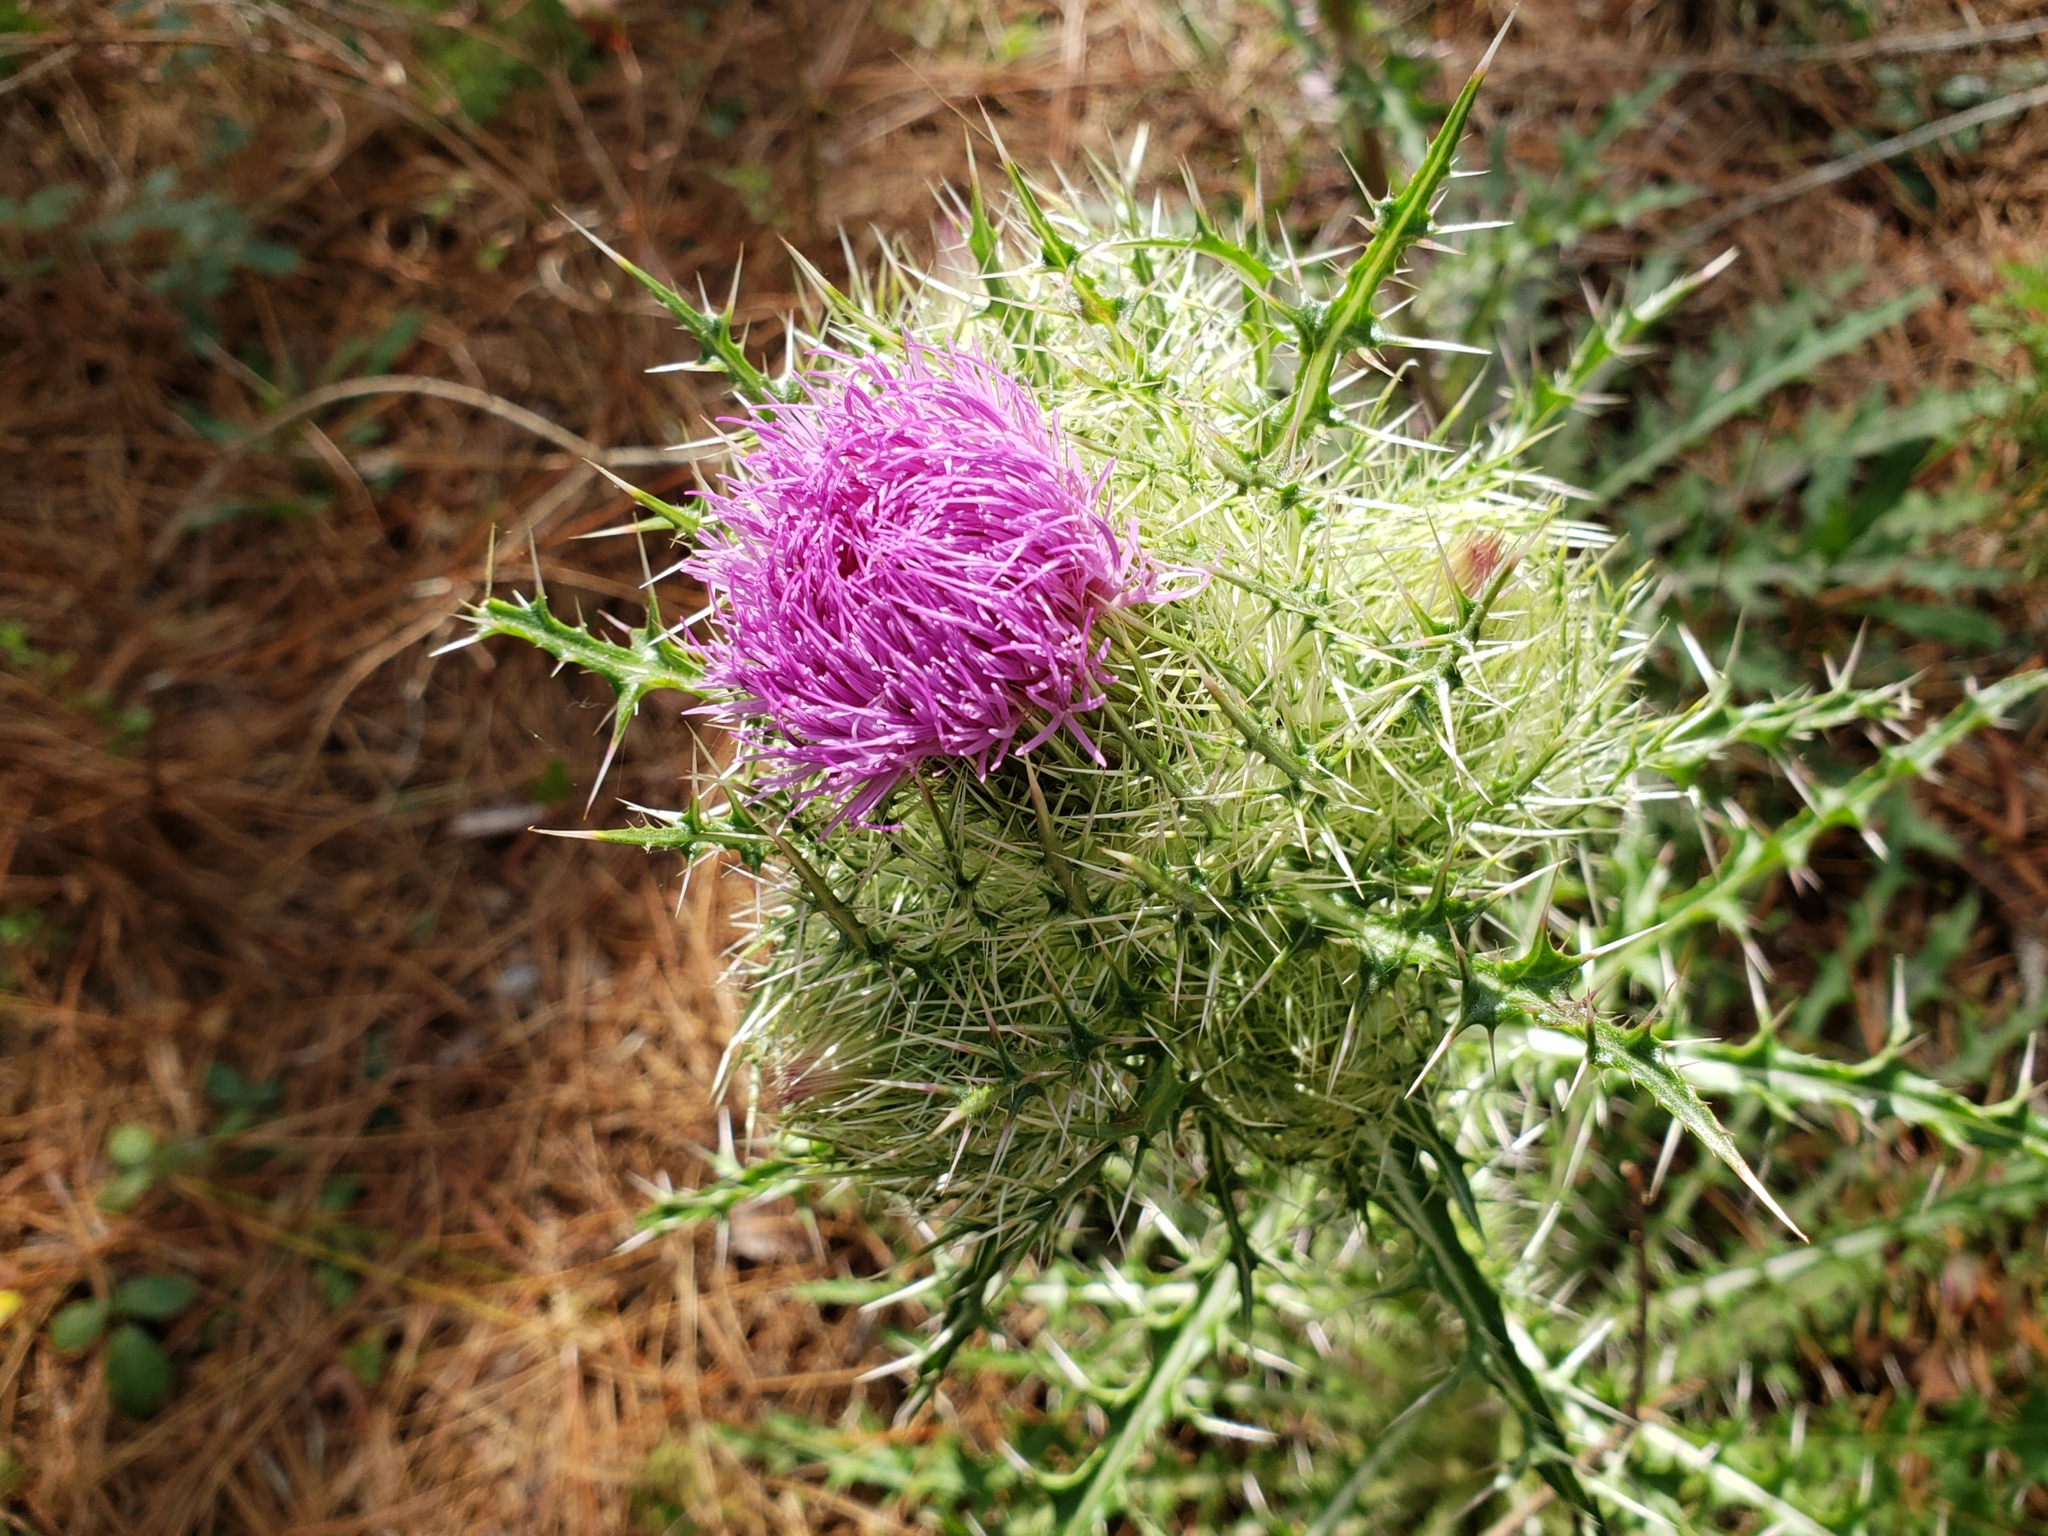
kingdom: Plantae
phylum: Tracheophyta
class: Magnoliopsida
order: Asterales
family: Asteraceae
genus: Cirsium
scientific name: Cirsium horridulum
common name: Bristly thistle
